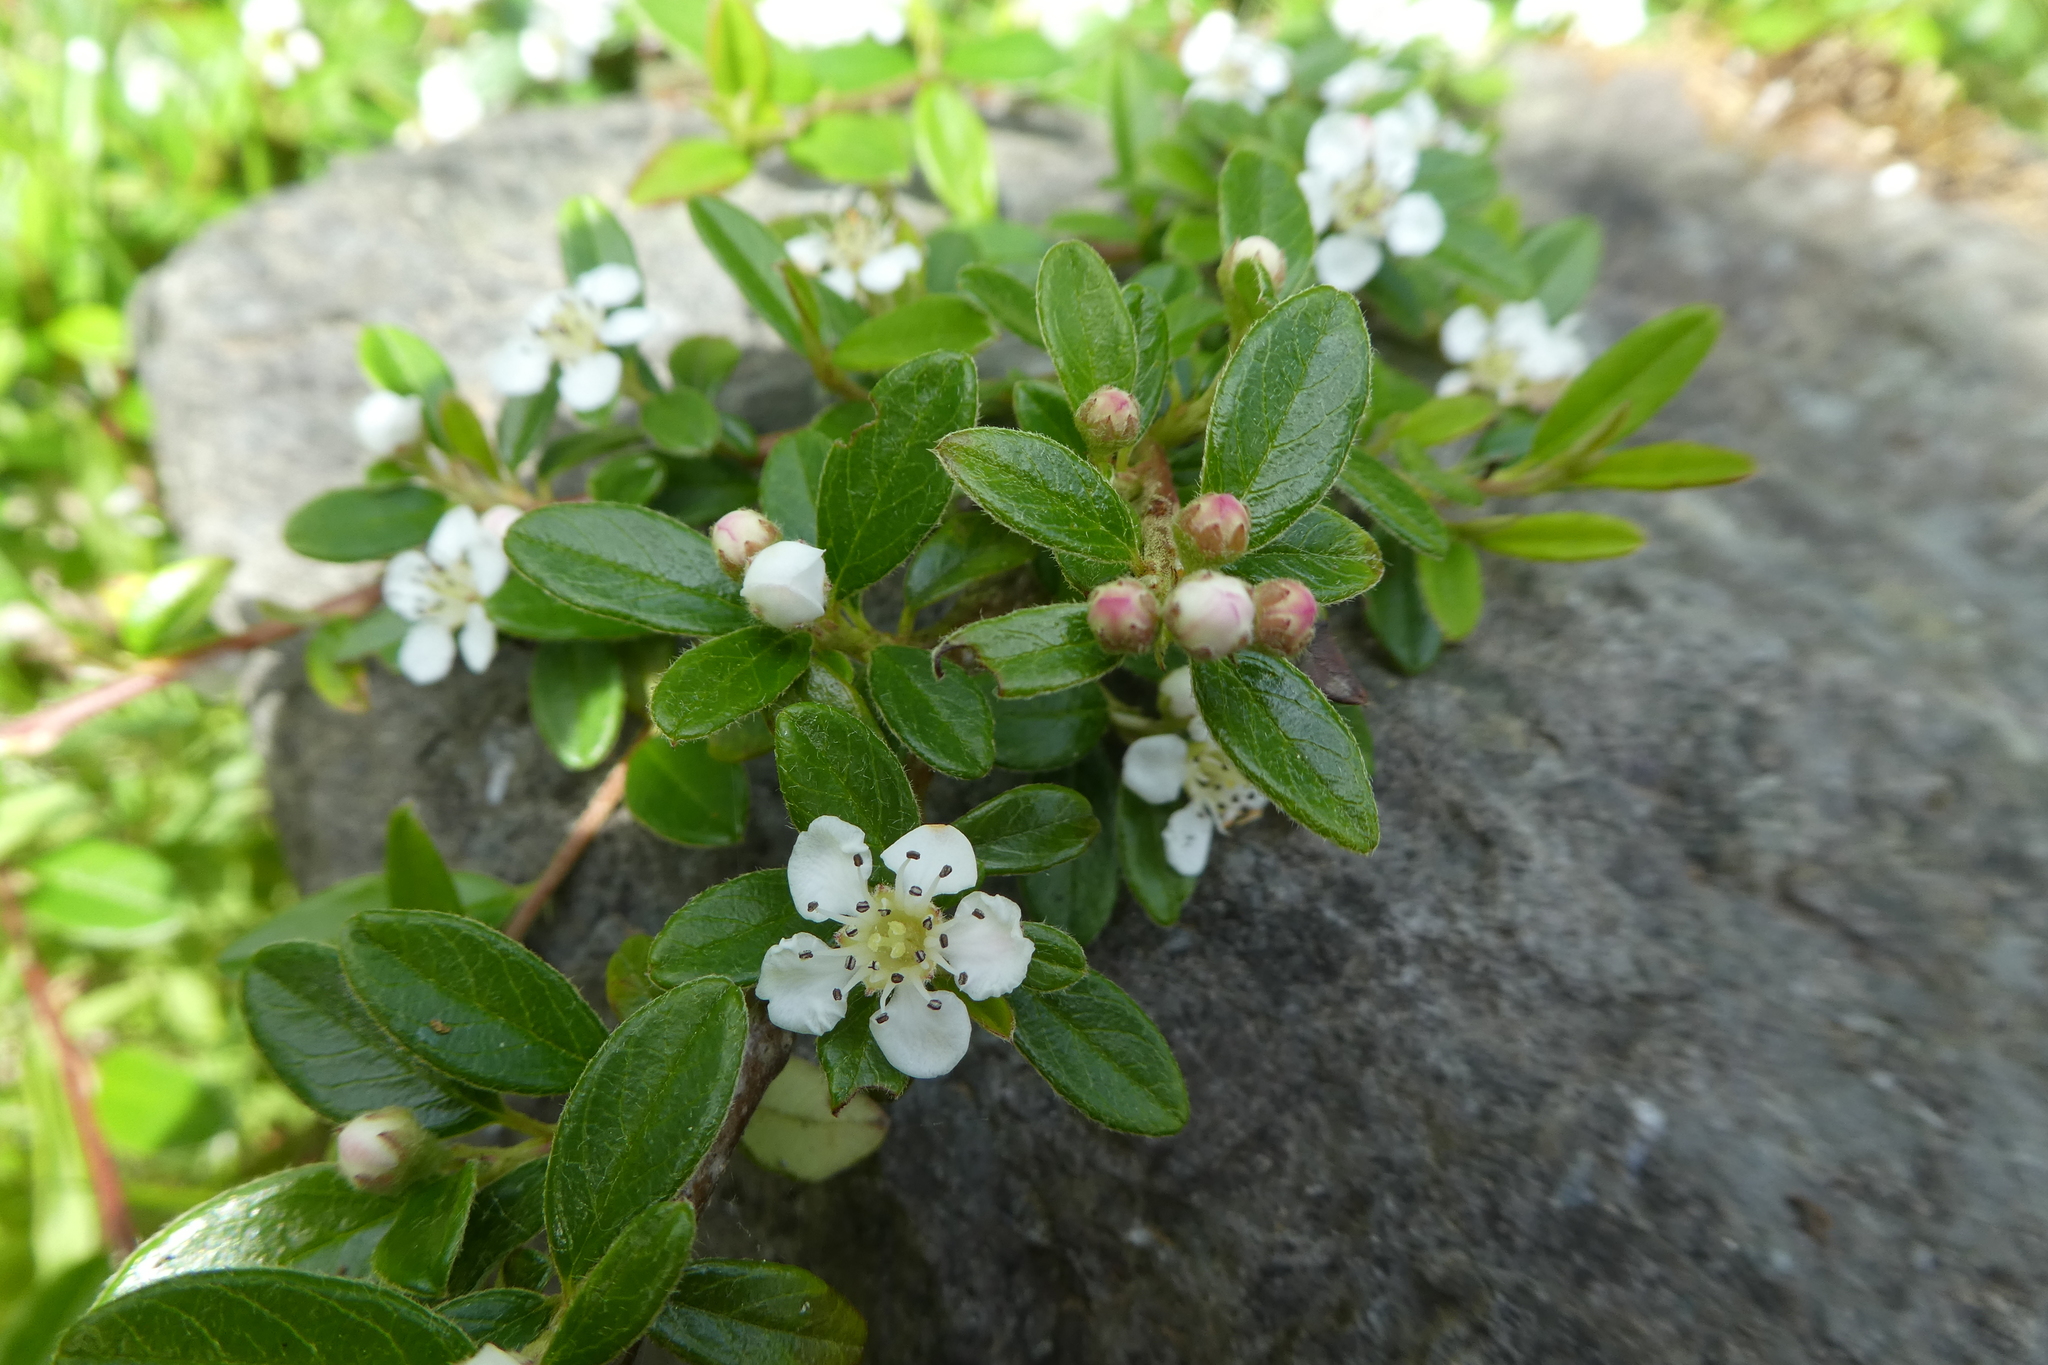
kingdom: Plantae
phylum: Tracheophyta
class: Magnoliopsida
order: Rosales
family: Rosaceae
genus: Cotoneaster
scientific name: Cotoneaster suecicus
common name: Swedish cotoneaster
